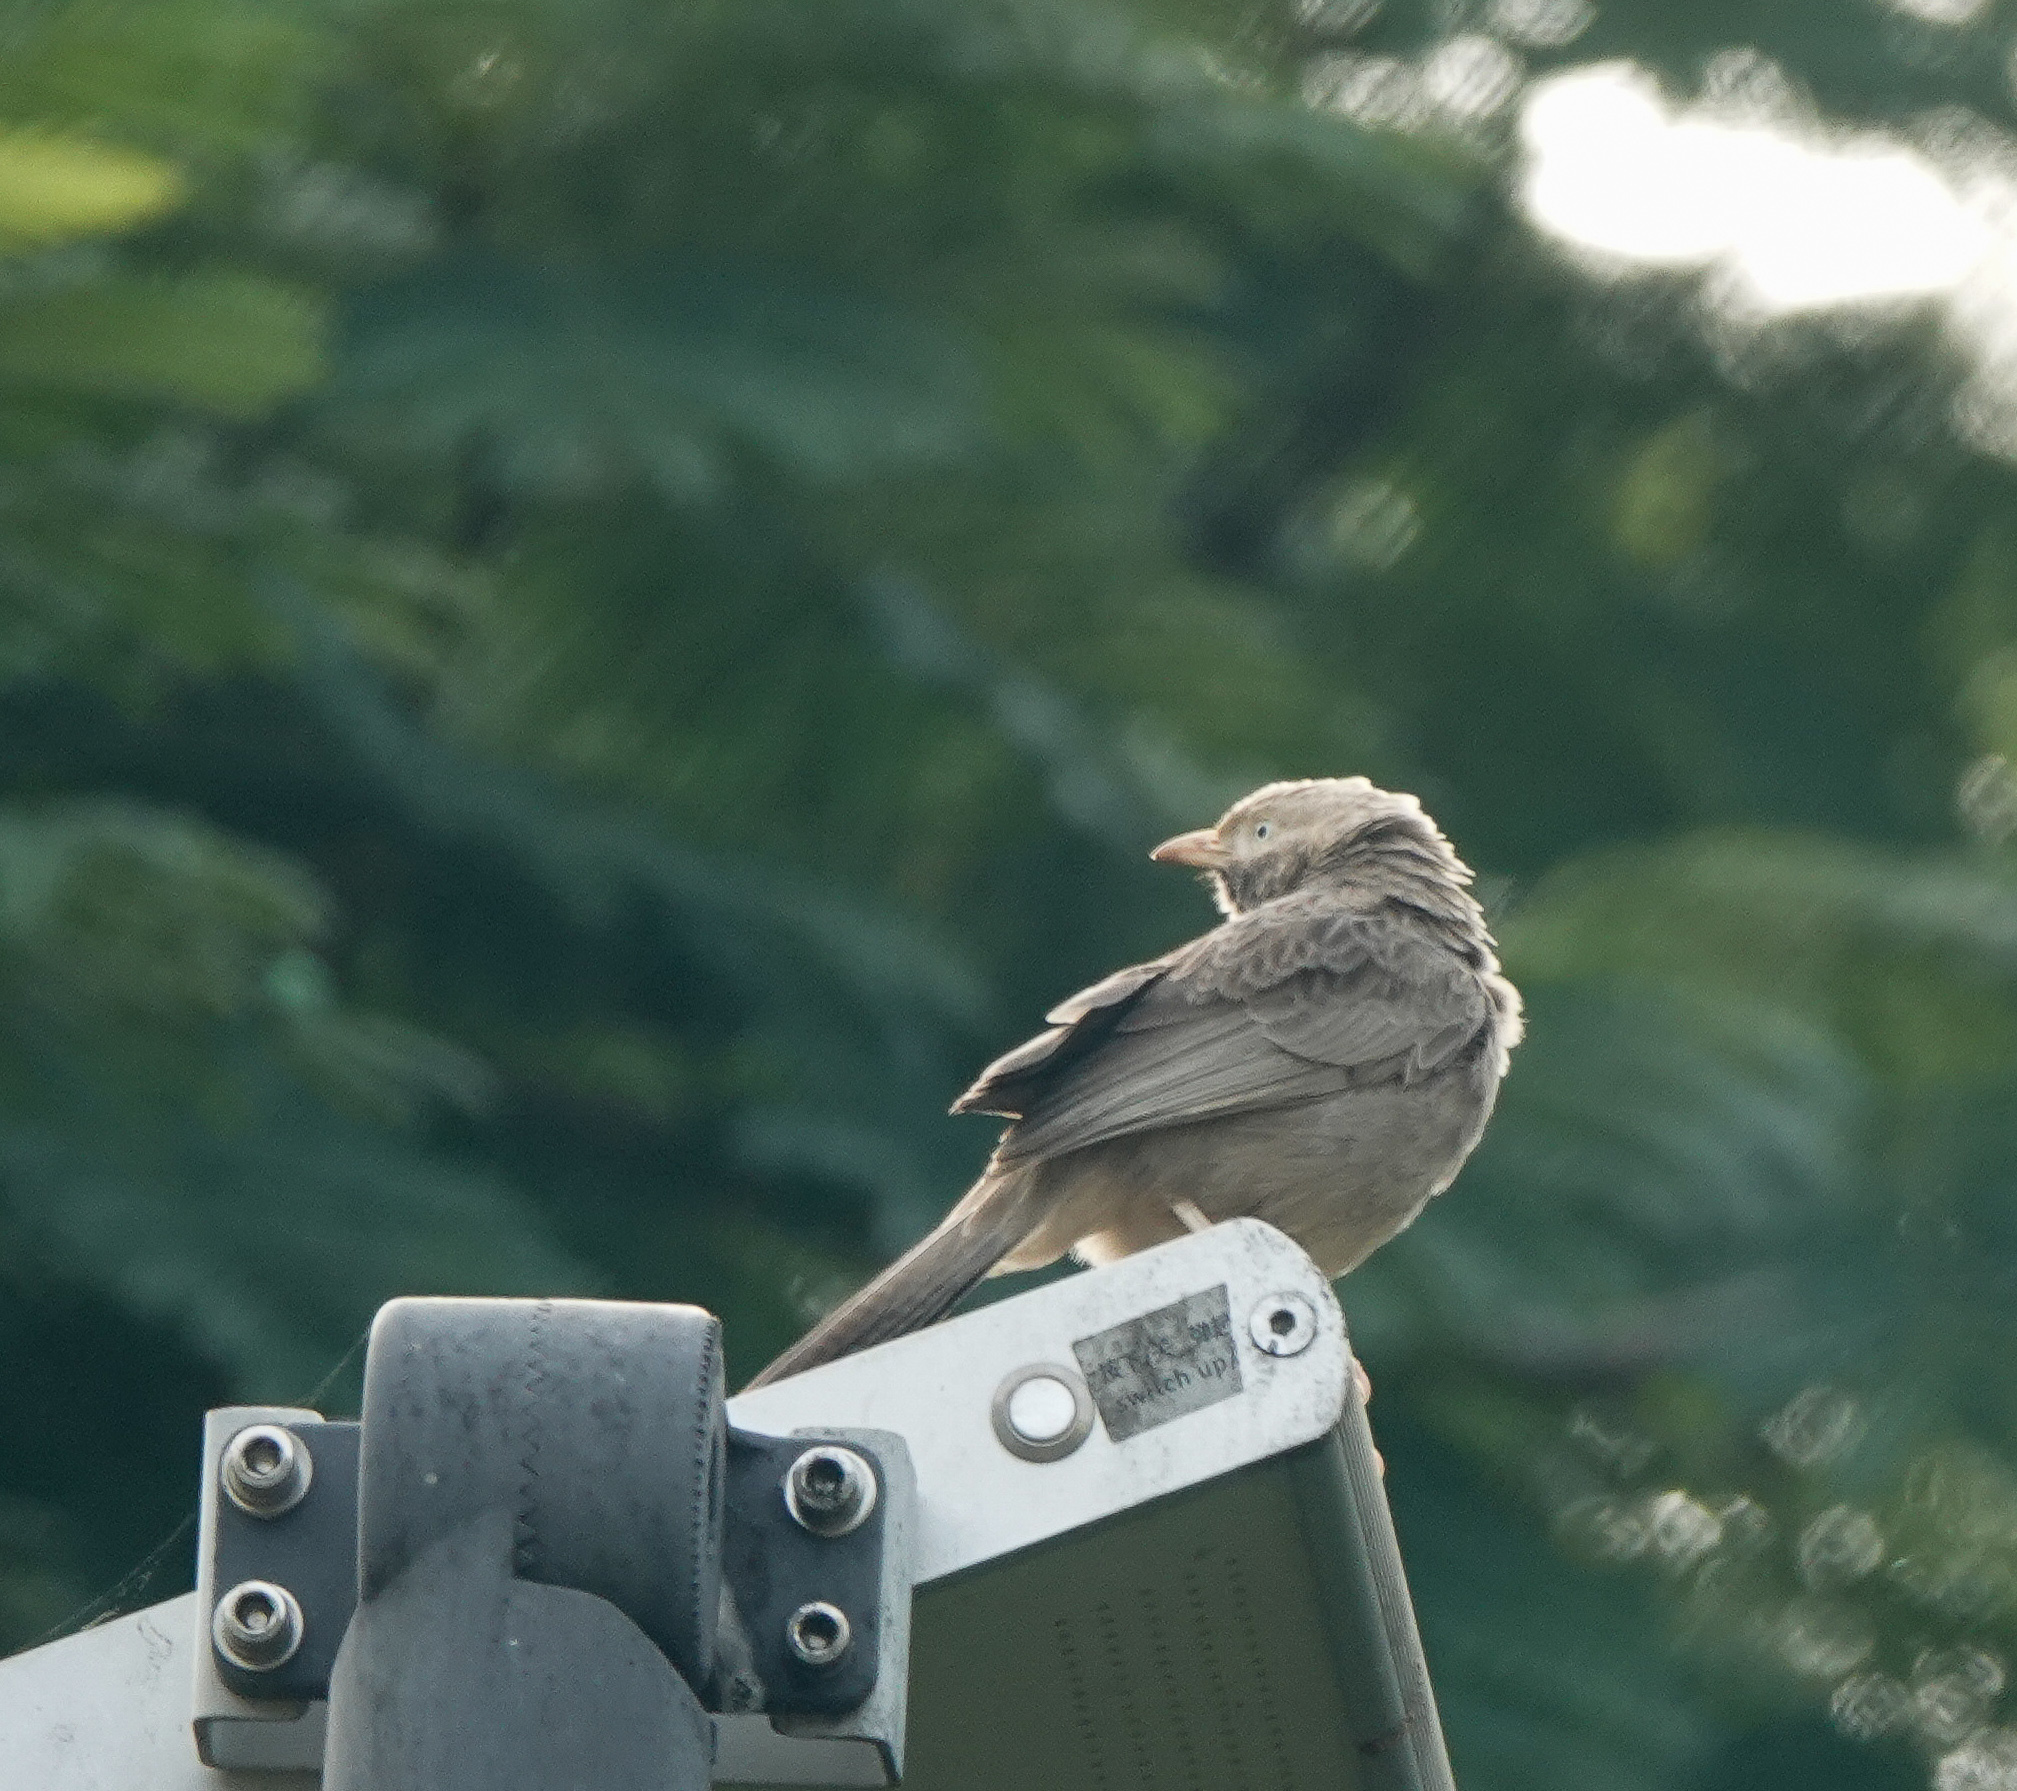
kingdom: Animalia
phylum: Chordata
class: Aves
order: Passeriformes
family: Leiothrichidae
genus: Turdoides
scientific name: Turdoides affinis
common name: Yellow-billed babbler
